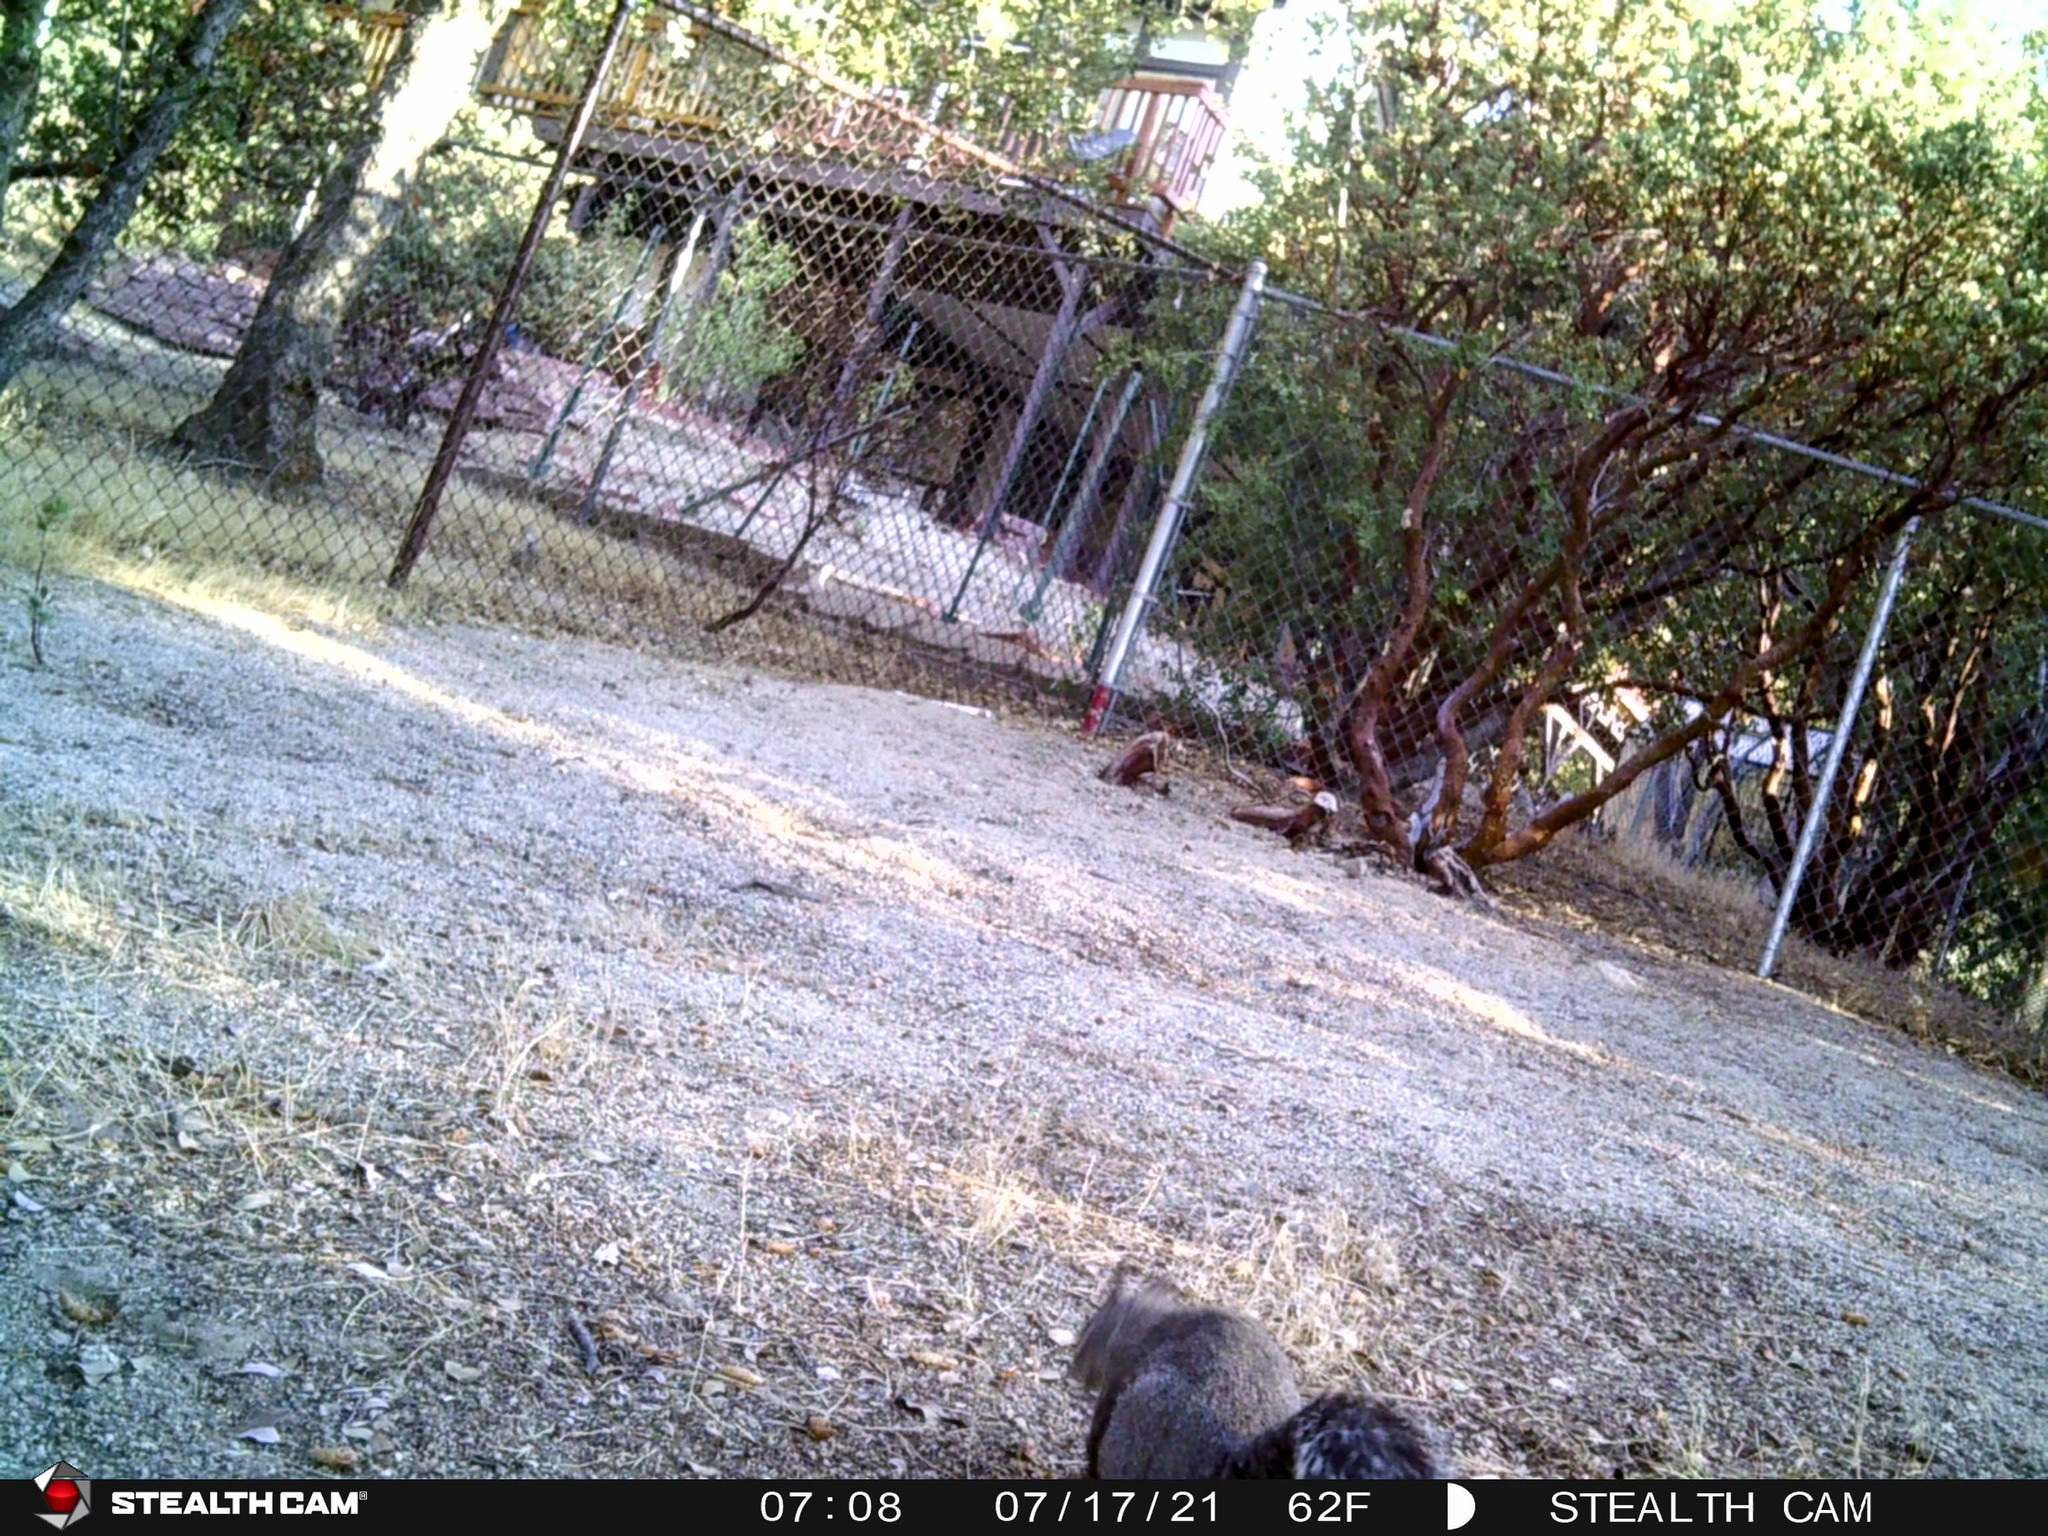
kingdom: Animalia
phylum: Chordata
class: Mammalia
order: Rodentia
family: Sciuridae
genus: Sciurus
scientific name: Sciurus griseus
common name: Western gray squirrel
